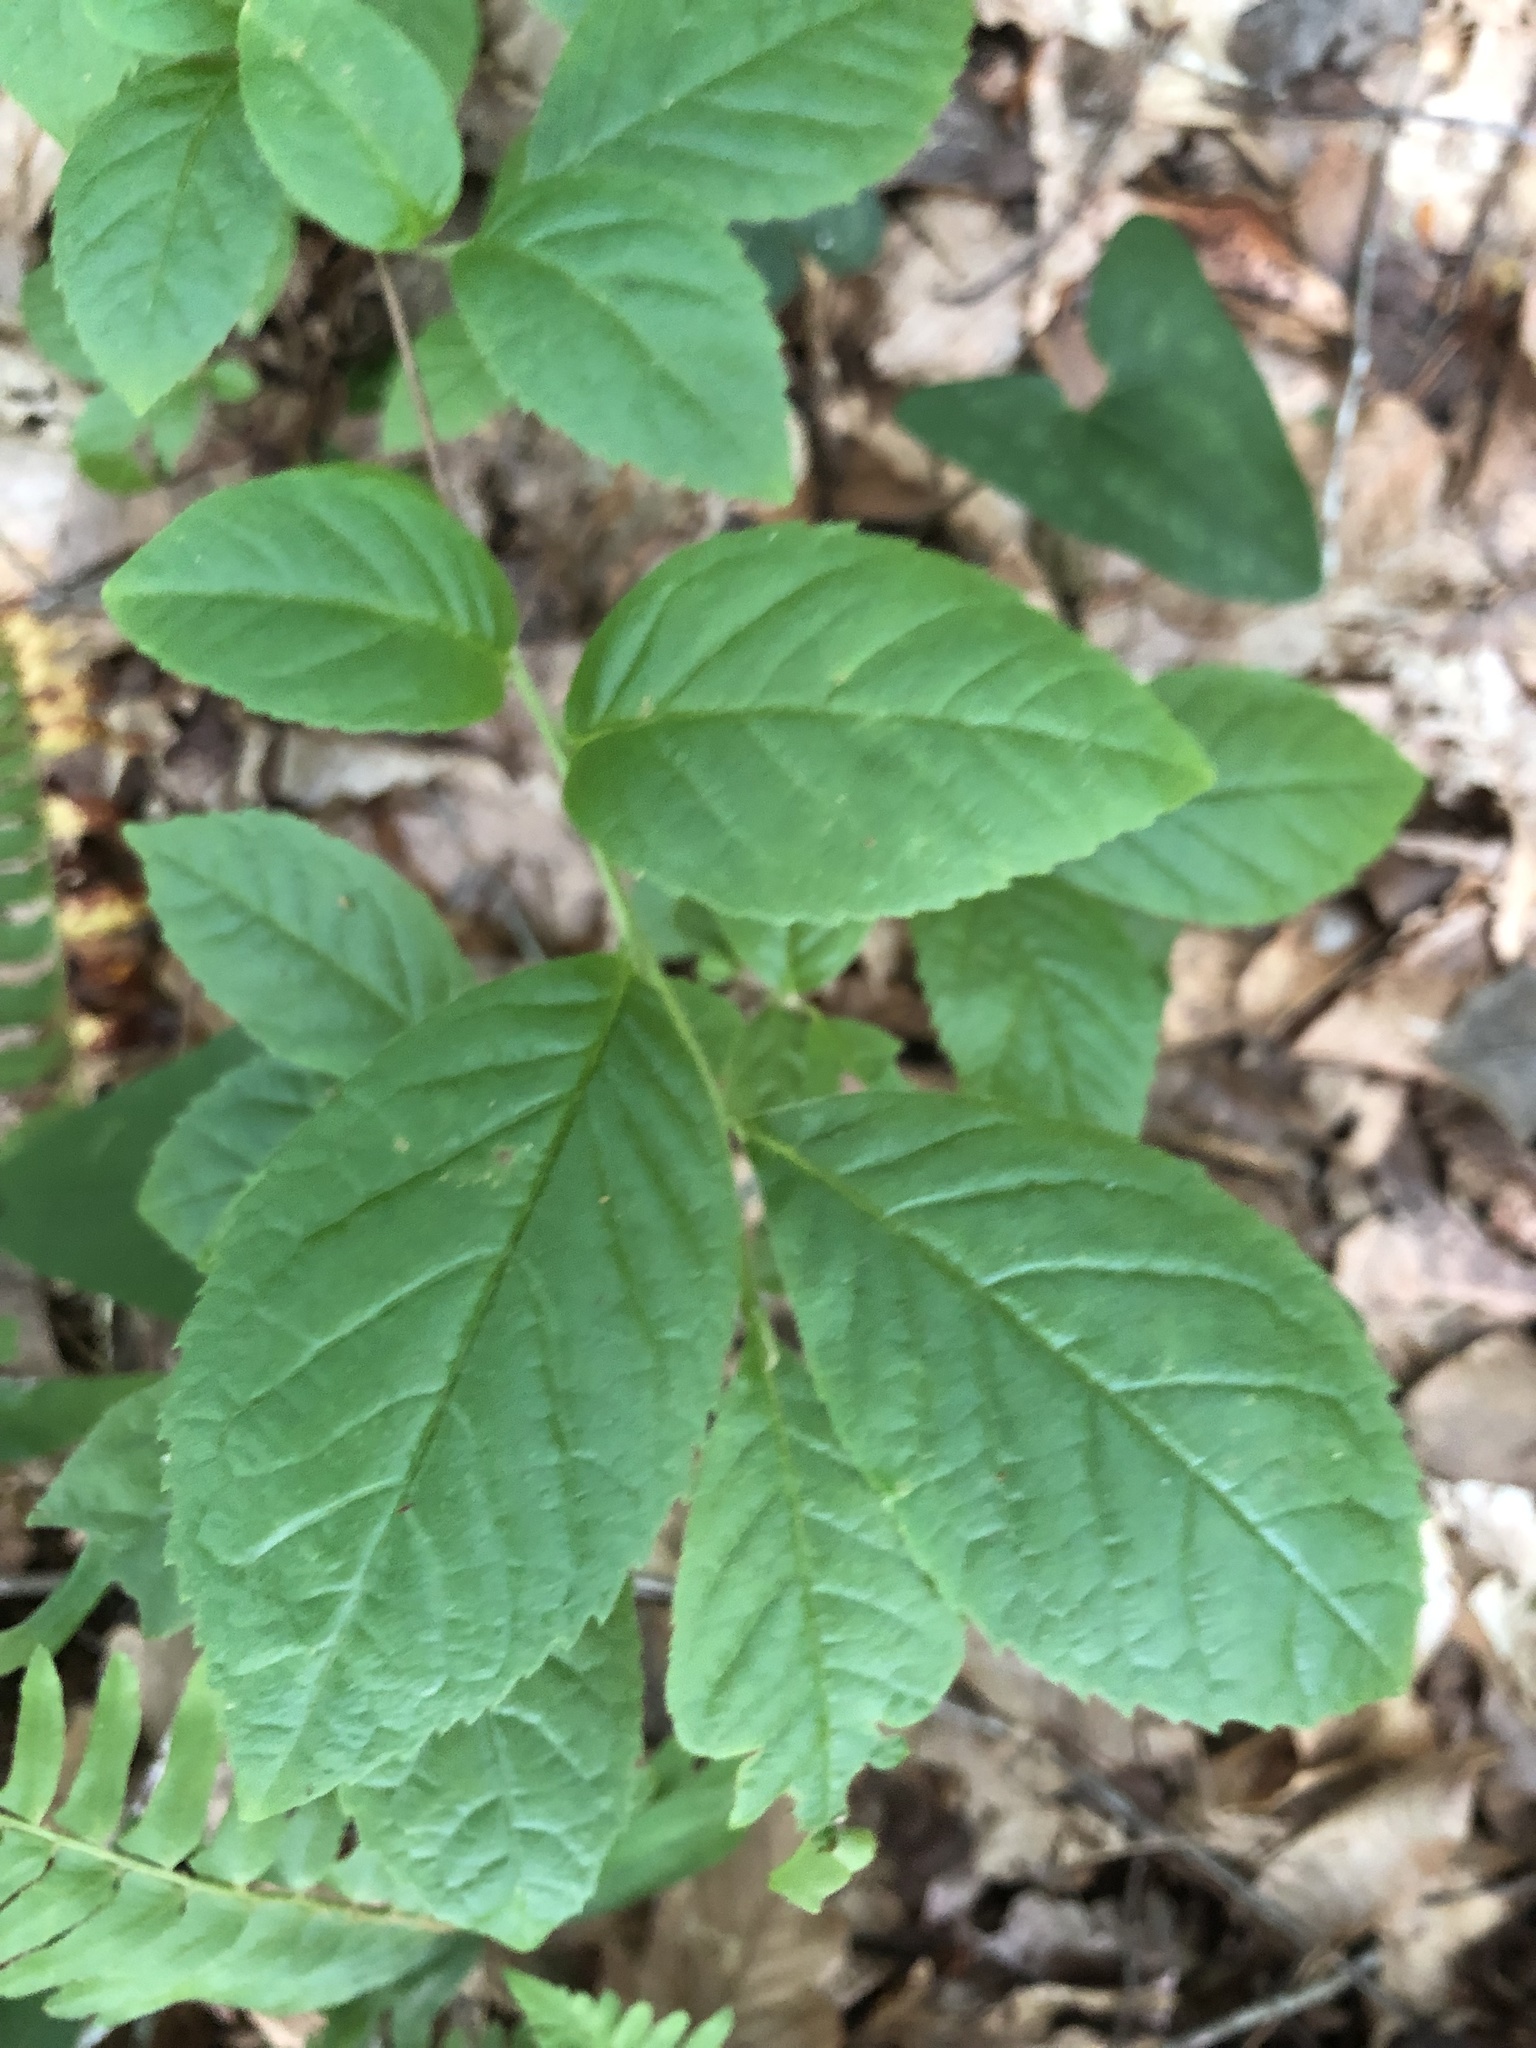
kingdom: Plantae
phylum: Tracheophyta
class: Magnoliopsida
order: Ericales
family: Theaceae
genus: Stewartia
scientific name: Stewartia malacodendron
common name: Virginia stewartia
